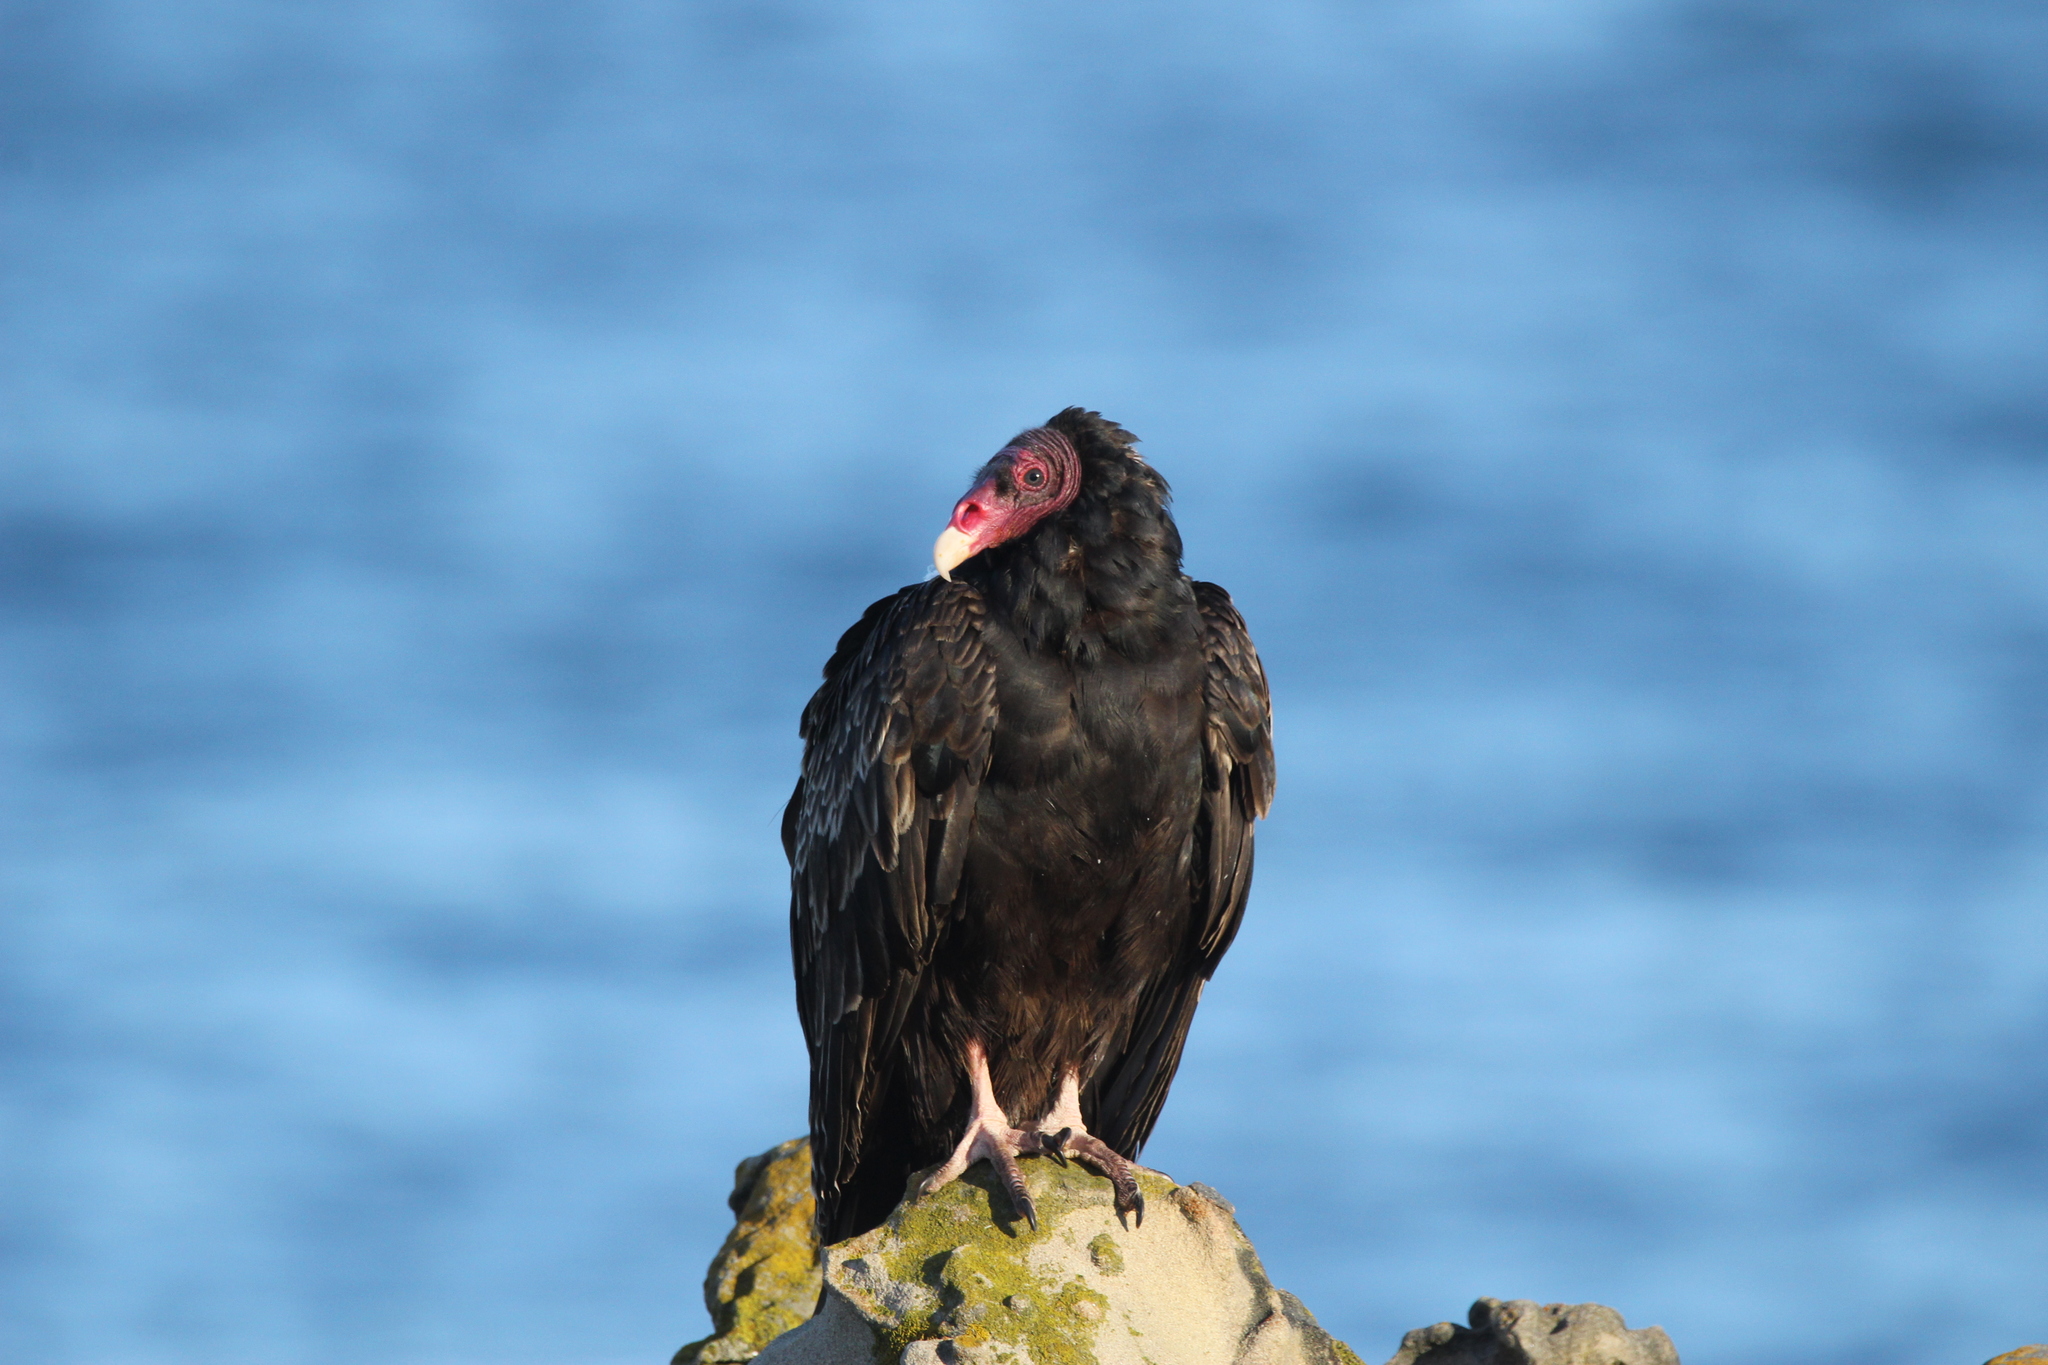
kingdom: Animalia
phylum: Chordata
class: Aves
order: Accipitriformes
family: Cathartidae
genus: Cathartes
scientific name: Cathartes aura
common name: Turkey vulture
